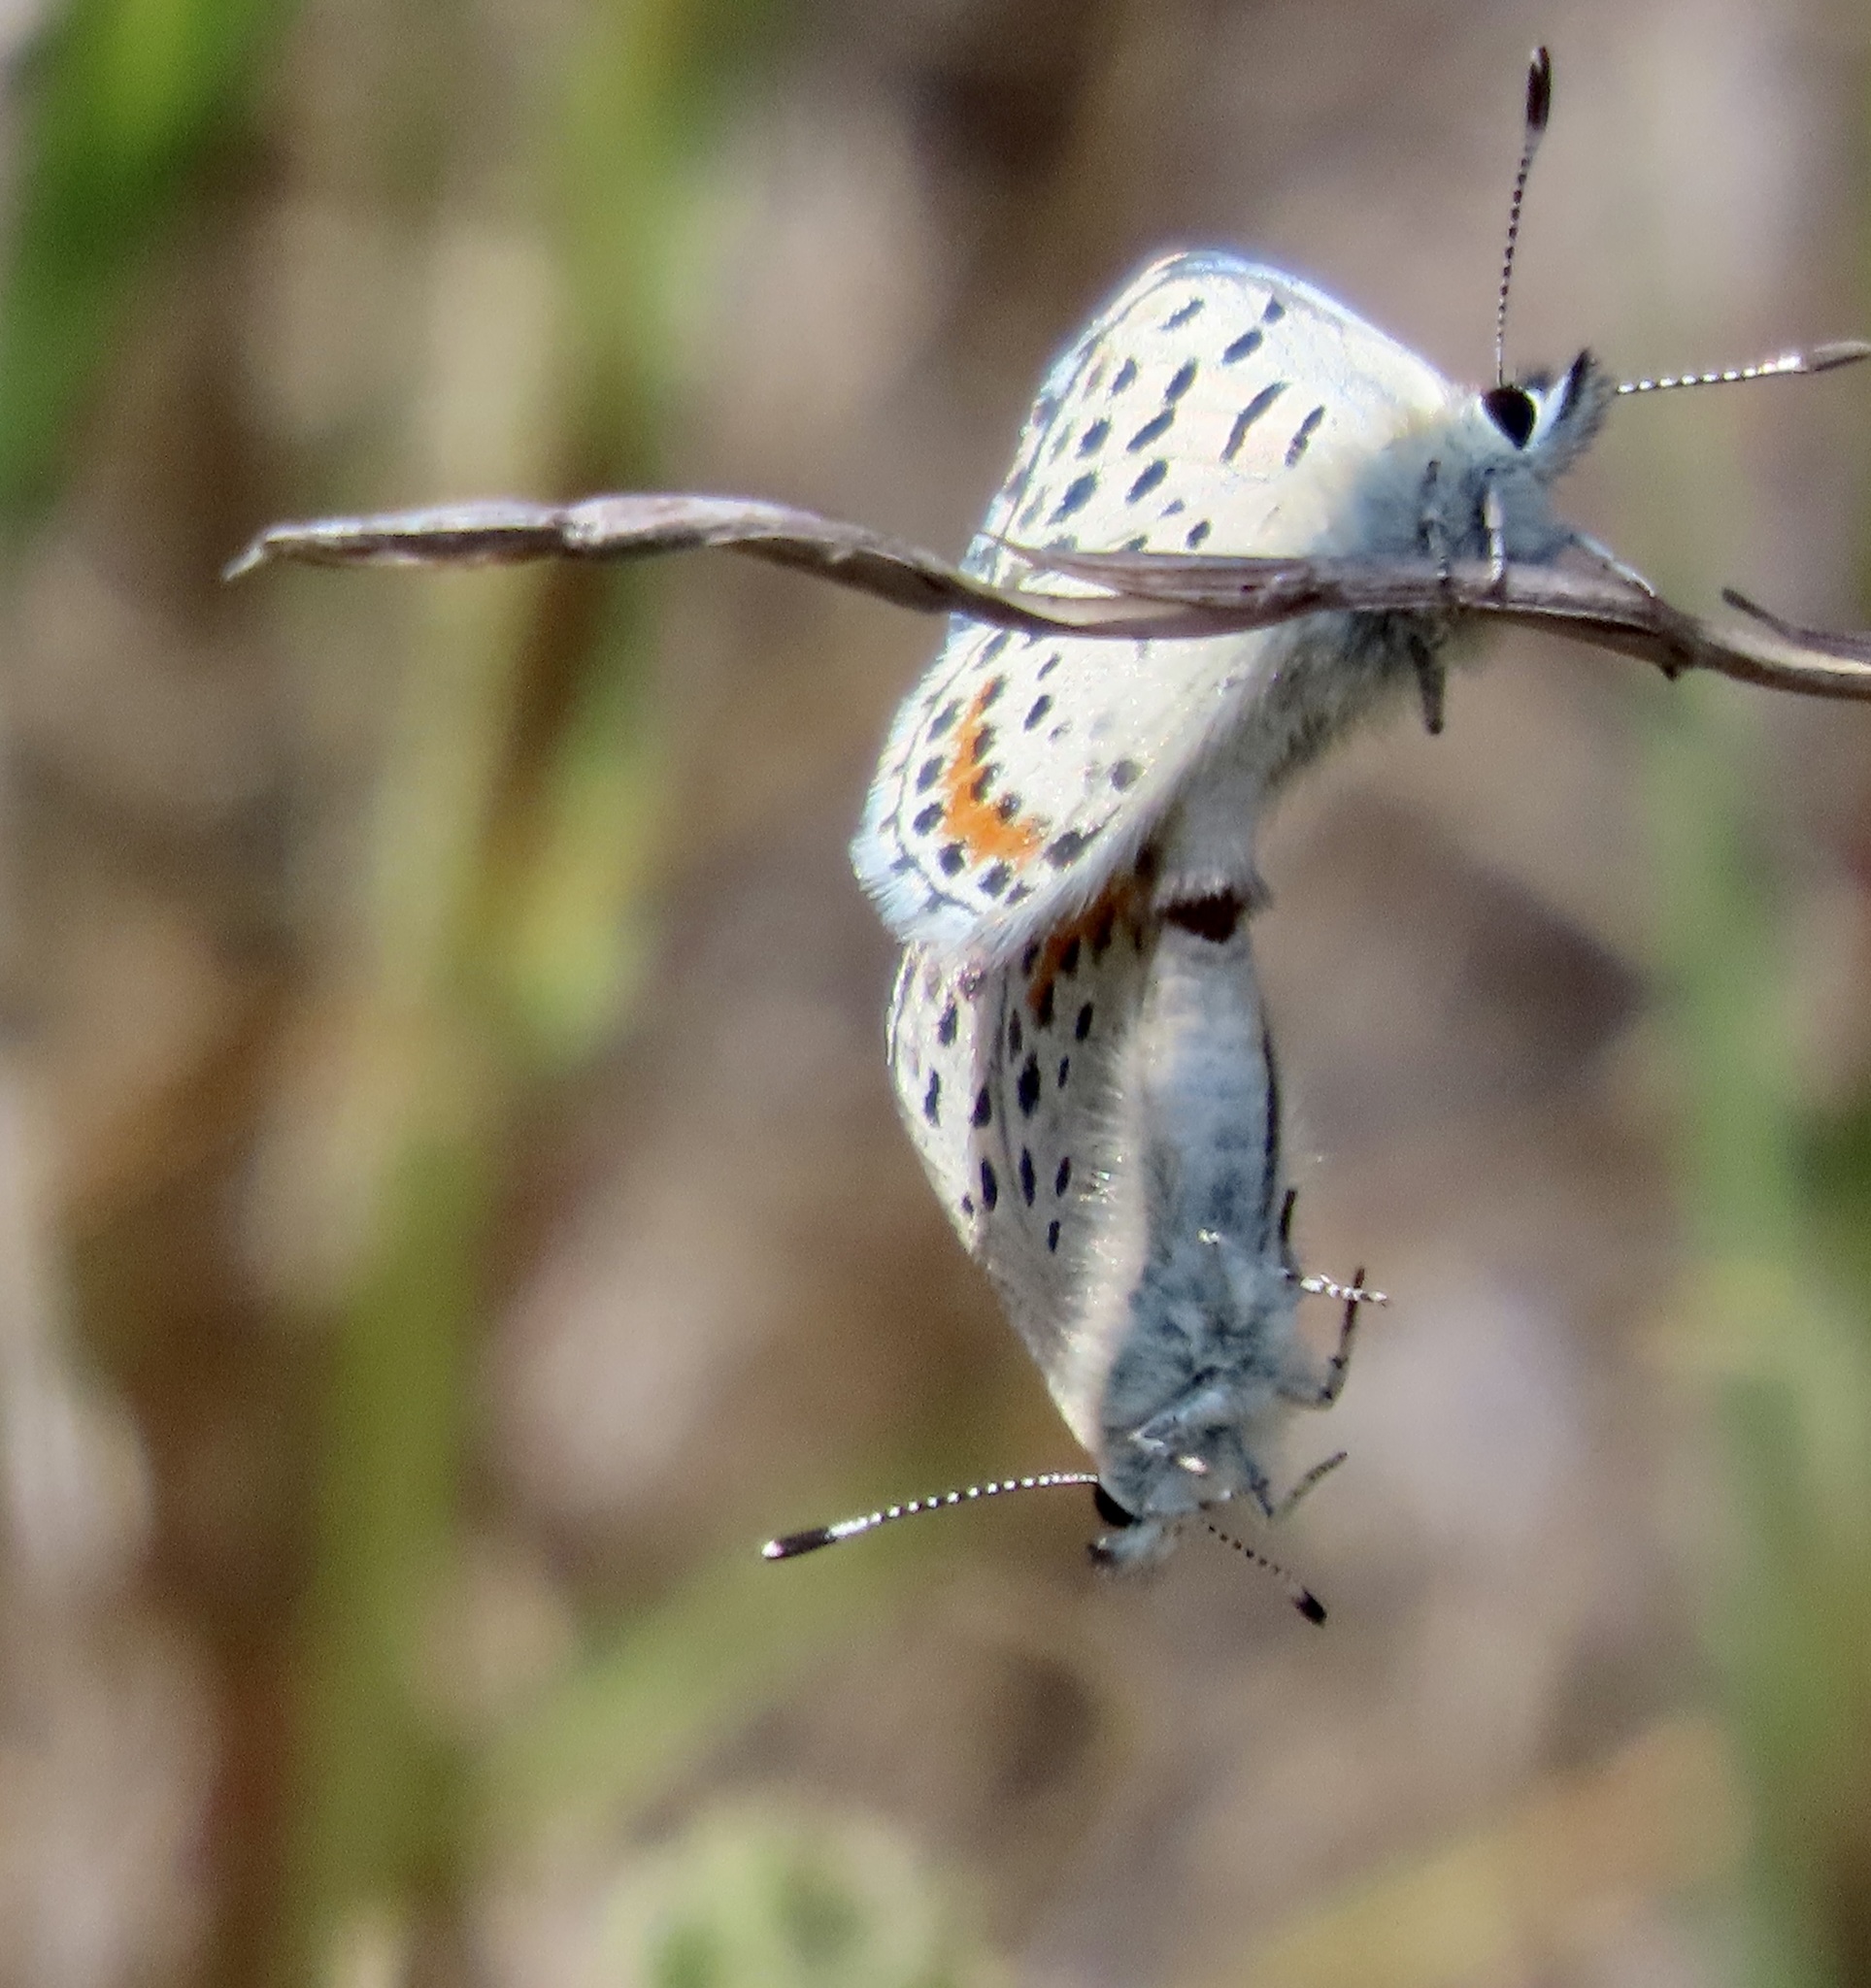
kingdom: Animalia
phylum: Arthropoda
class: Insecta
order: Lepidoptera
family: Lycaenidae
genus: Euphilotes
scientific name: Euphilotes enoptes
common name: Dotted blue
